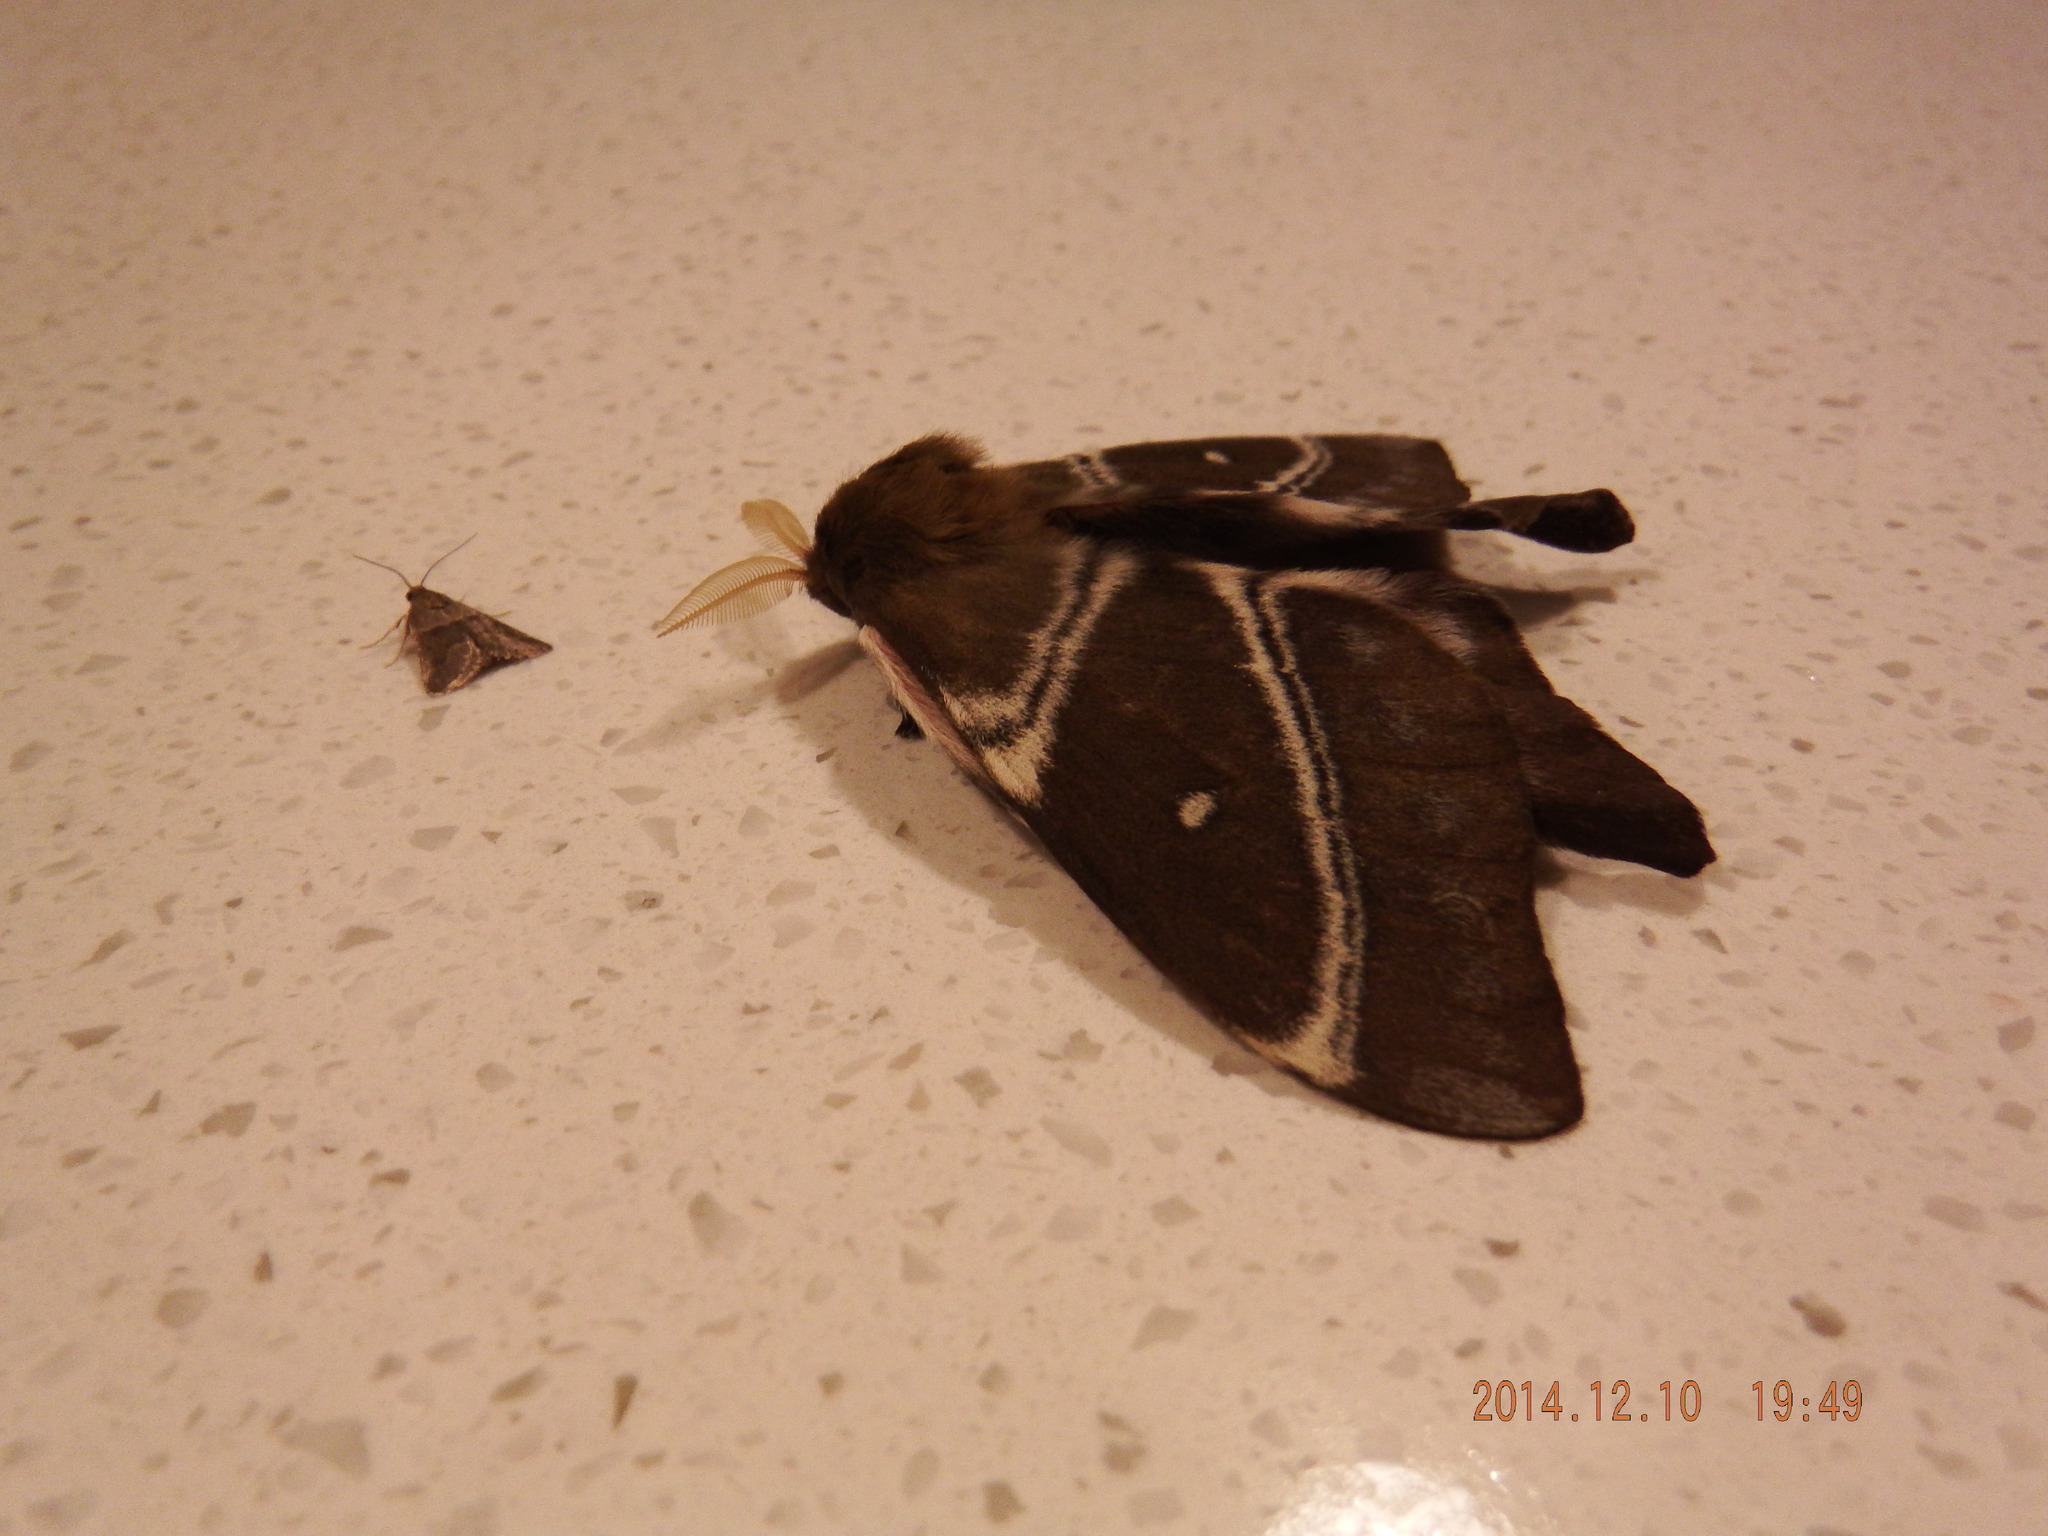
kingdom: Animalia
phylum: Arthropoda
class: Insecta
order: Lepidoptera
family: Saturniidae
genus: Urota
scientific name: Urota sinope
